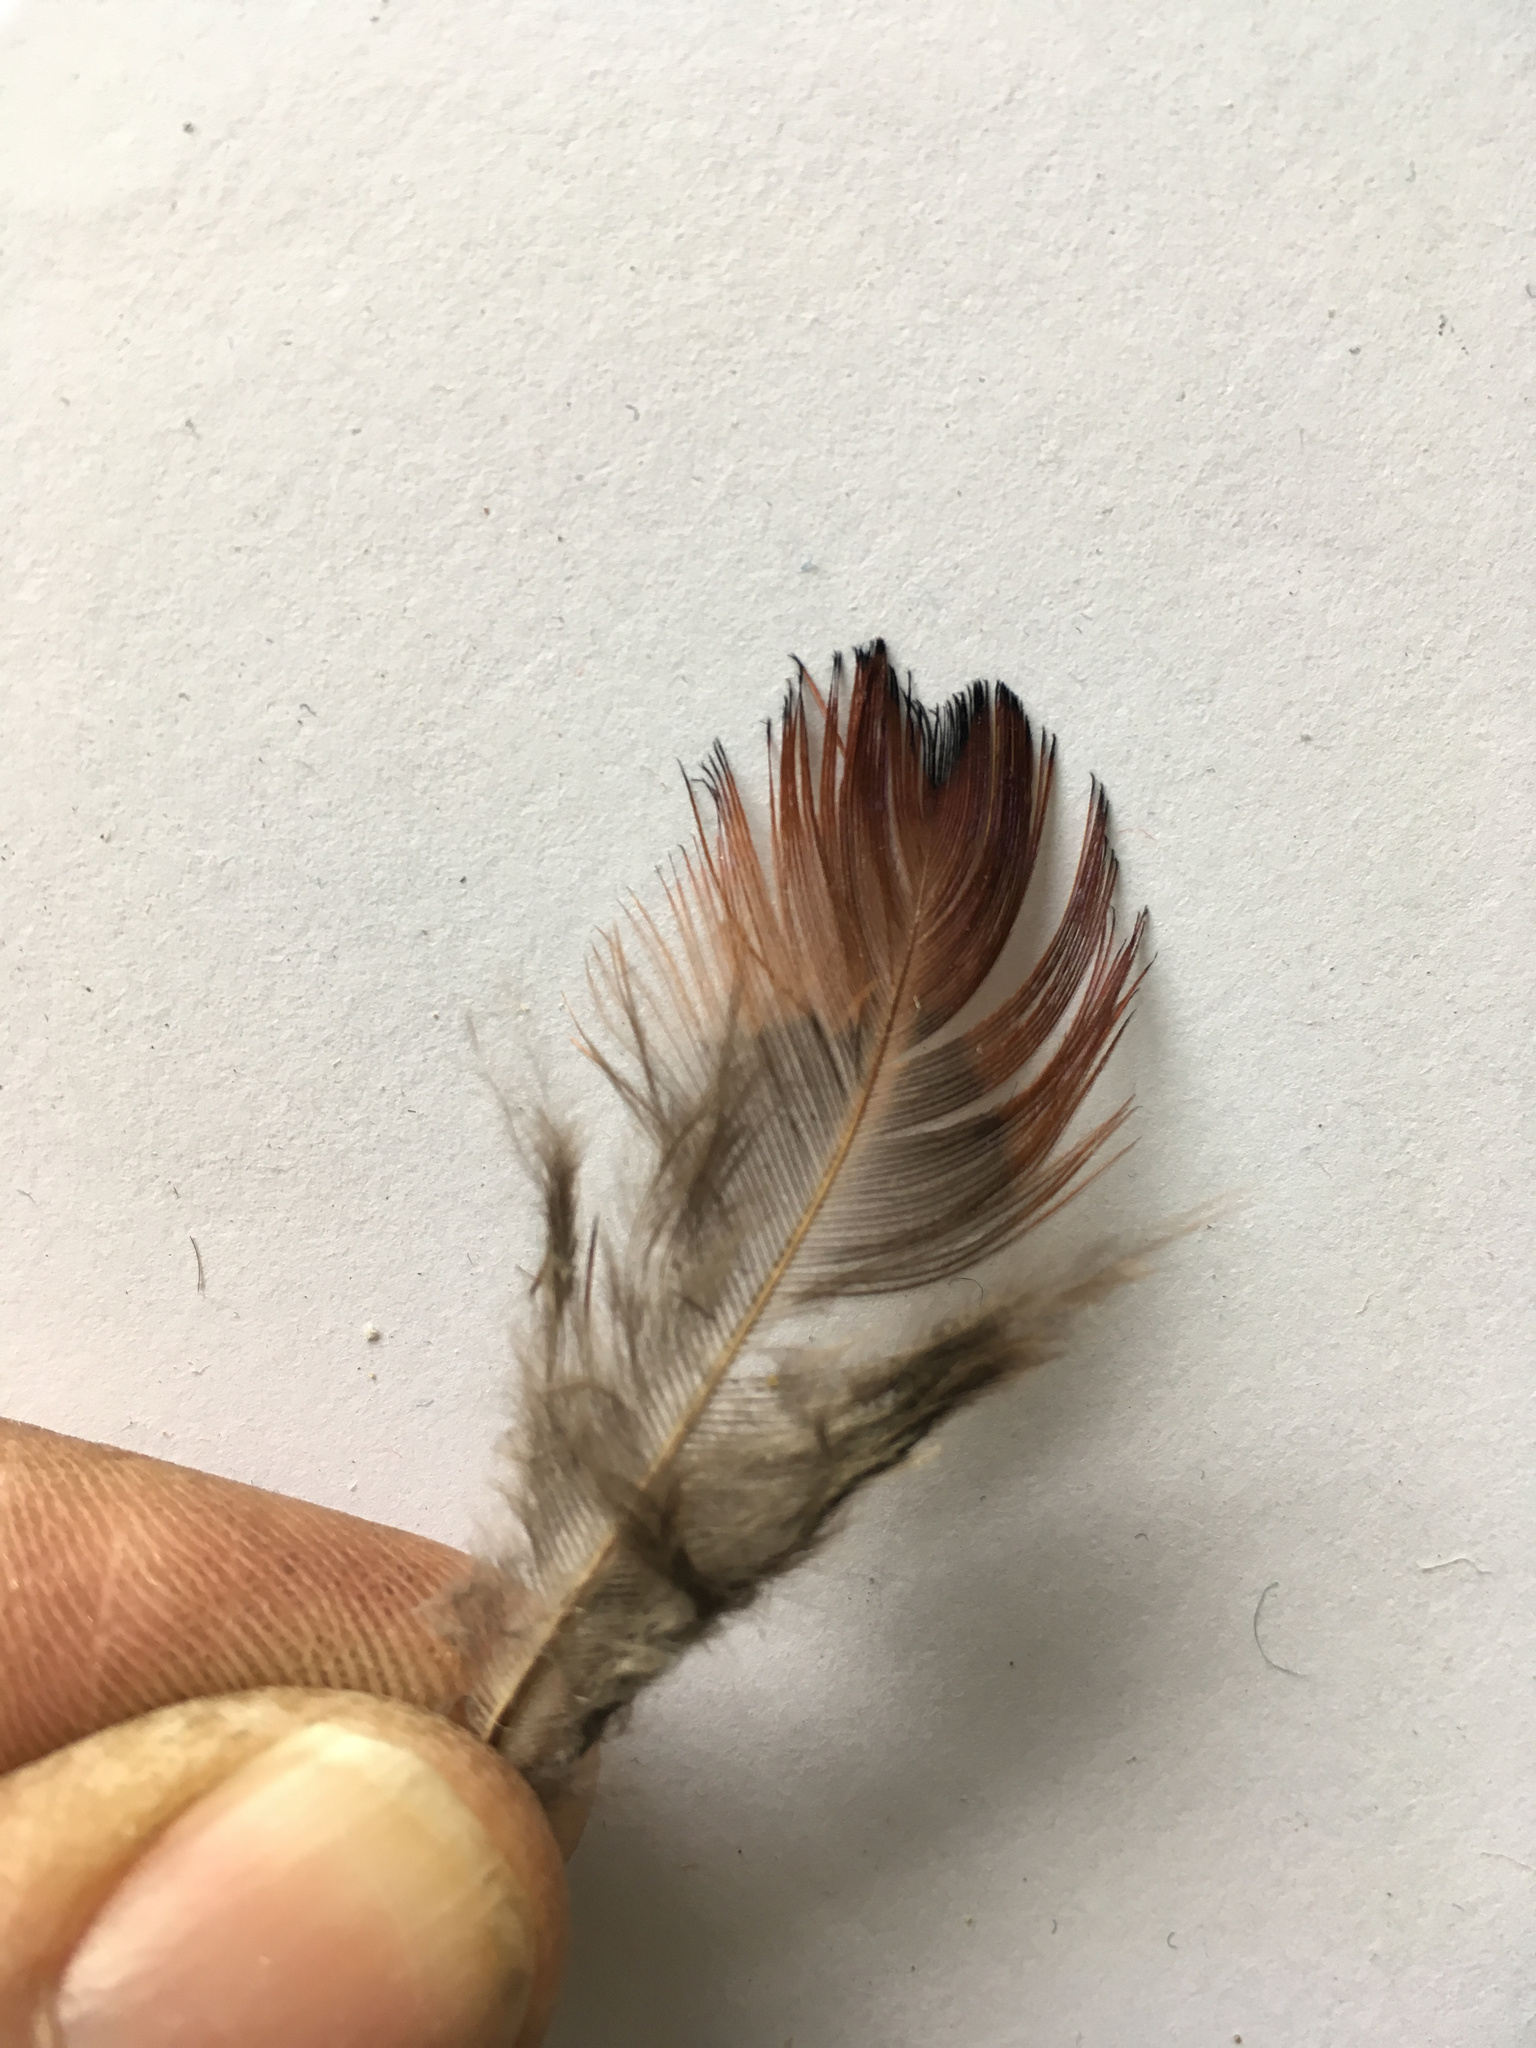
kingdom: Animalia
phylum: Chordata
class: Aves
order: Anseriformes
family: Anatidae
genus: Spatula
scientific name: Spatula rhynchotis
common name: Australian shoveler
